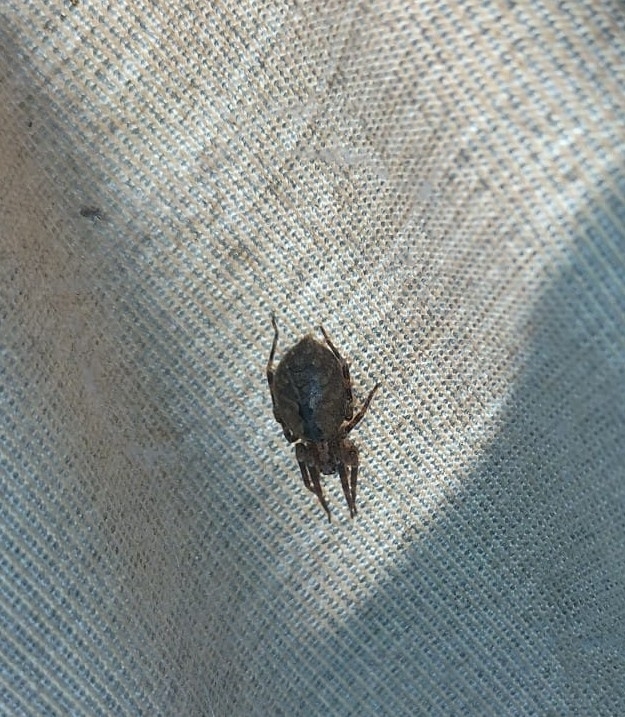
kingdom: Animalia
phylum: Arthropoda
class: Arachnida
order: Araneae
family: Zoropsidae
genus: Zoropsis
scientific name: Zoropsis spinimana
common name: Zoropsid spider
